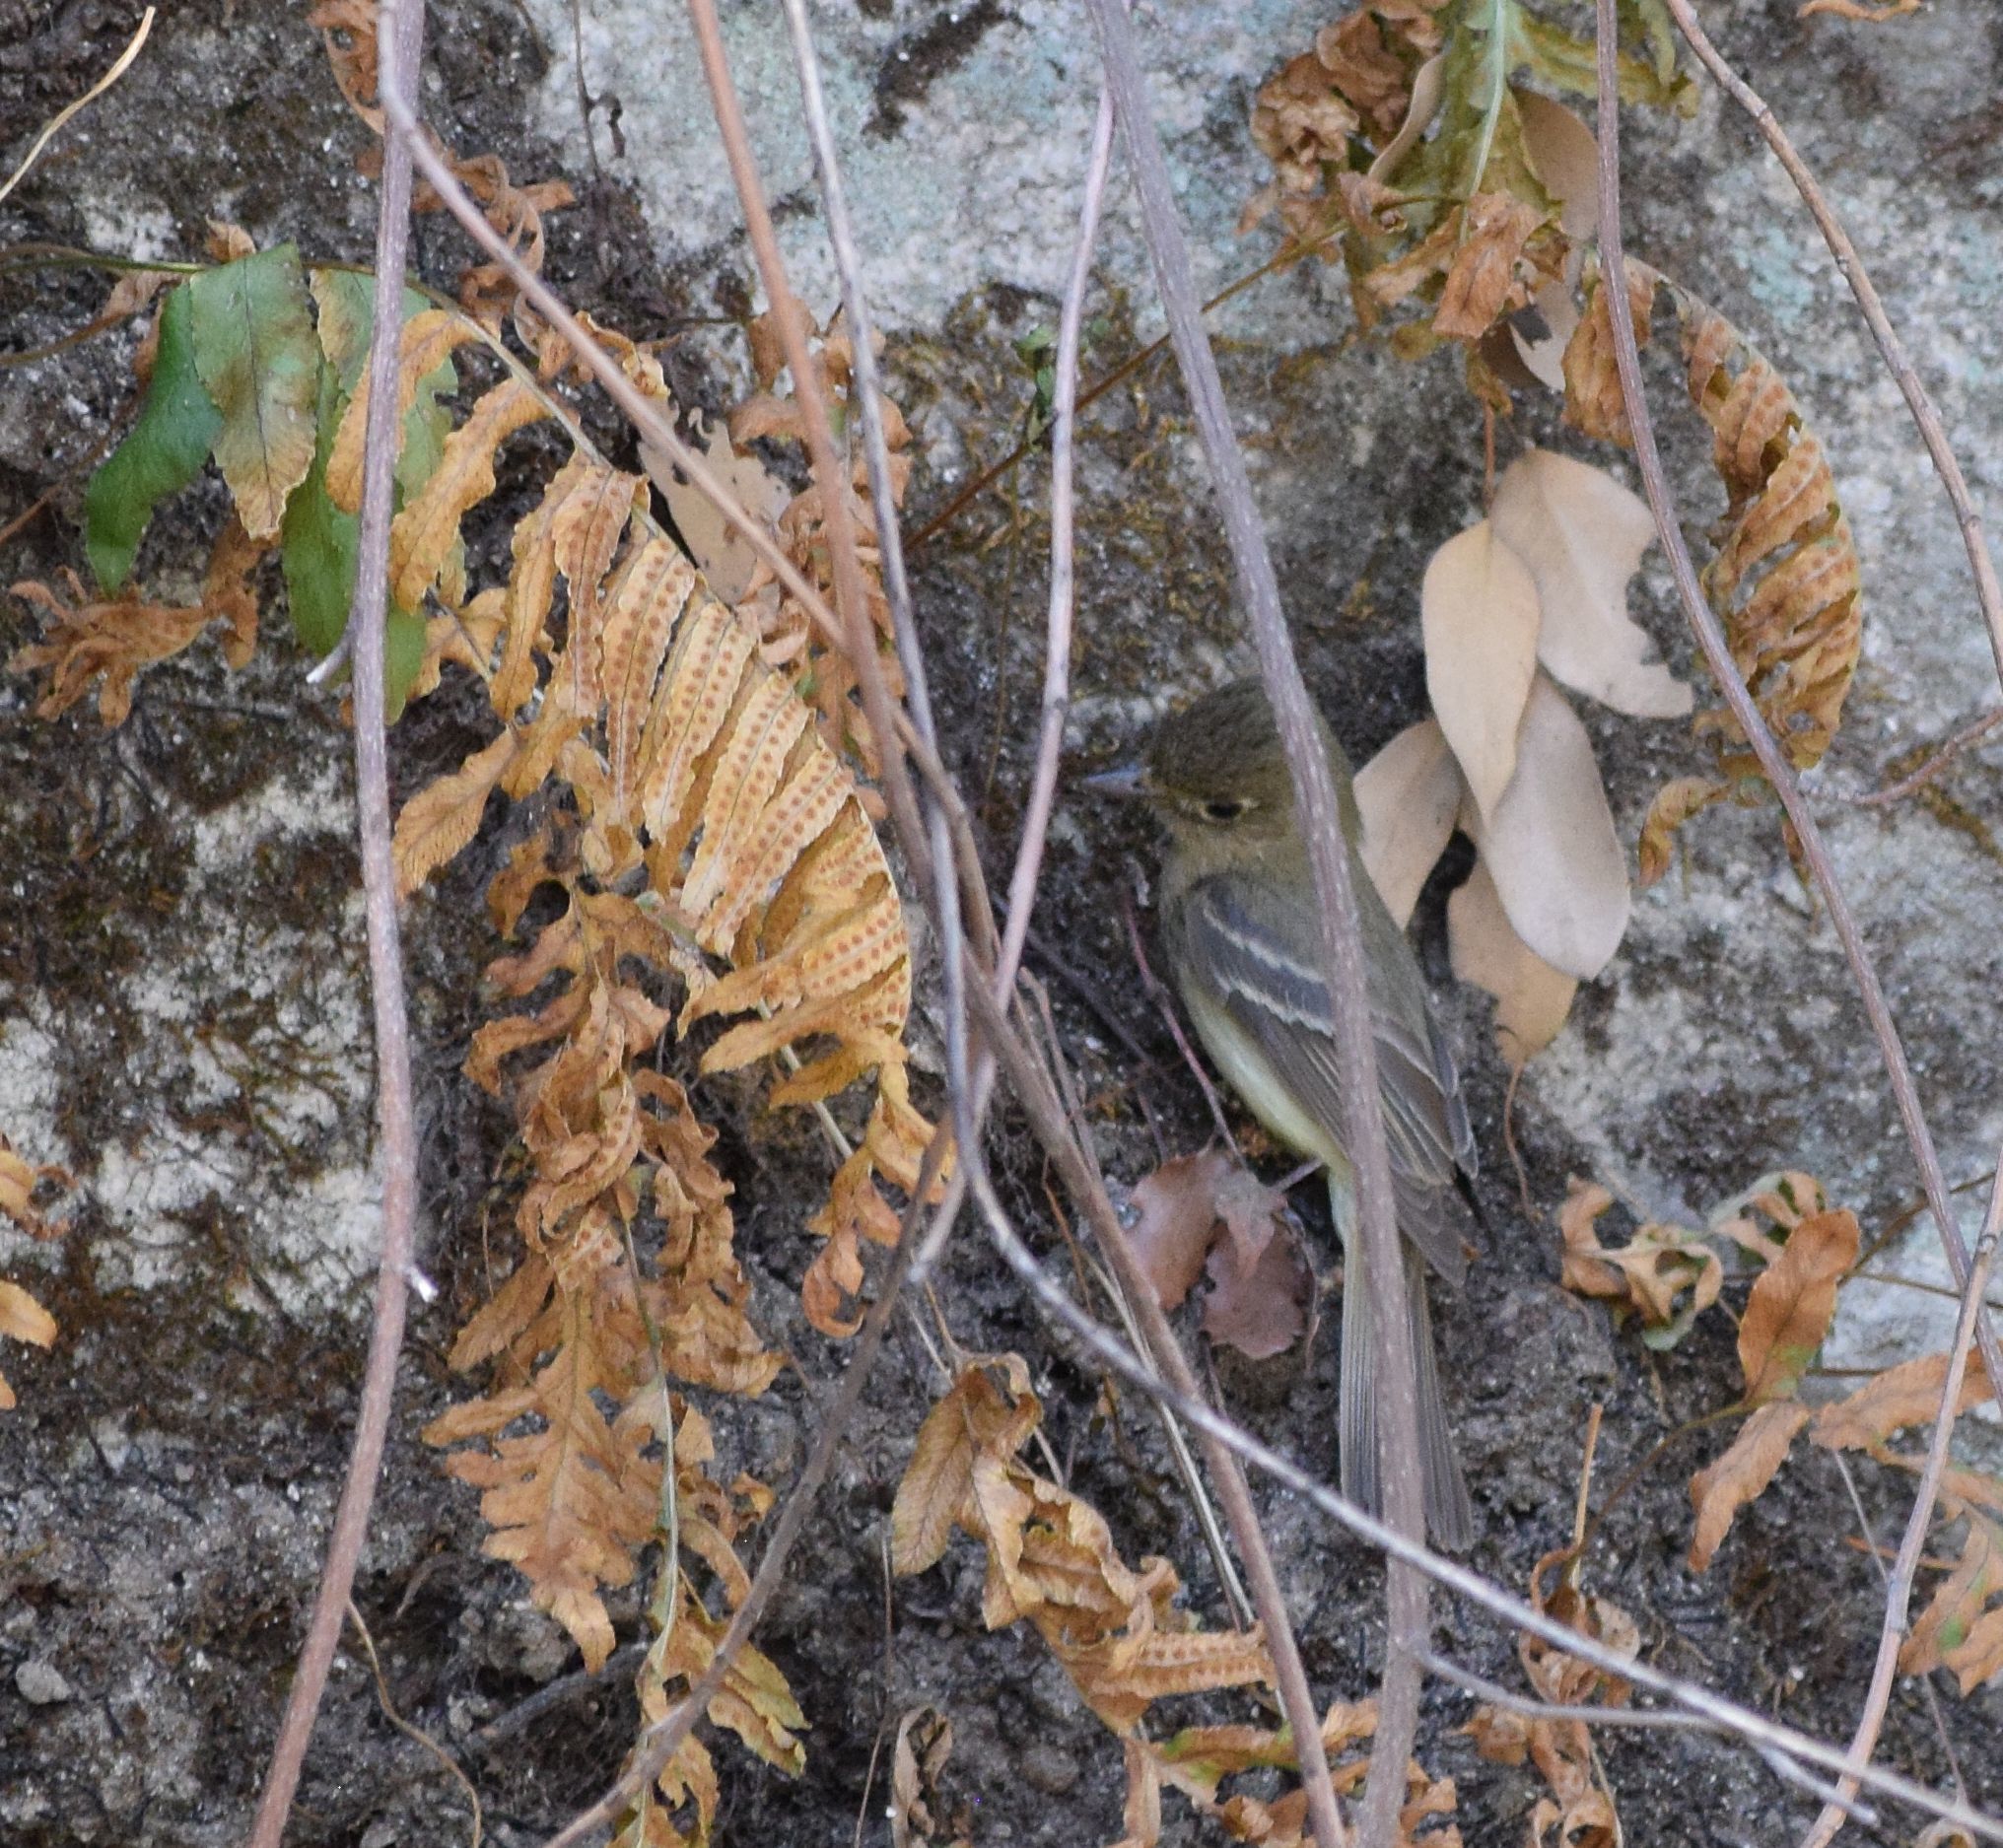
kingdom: Animalia
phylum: Chordata
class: Aves
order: Passeriformes
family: Tyrannidae
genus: Empidonax
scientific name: Empidonax difficilis
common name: Pacific-slope flycatcher
